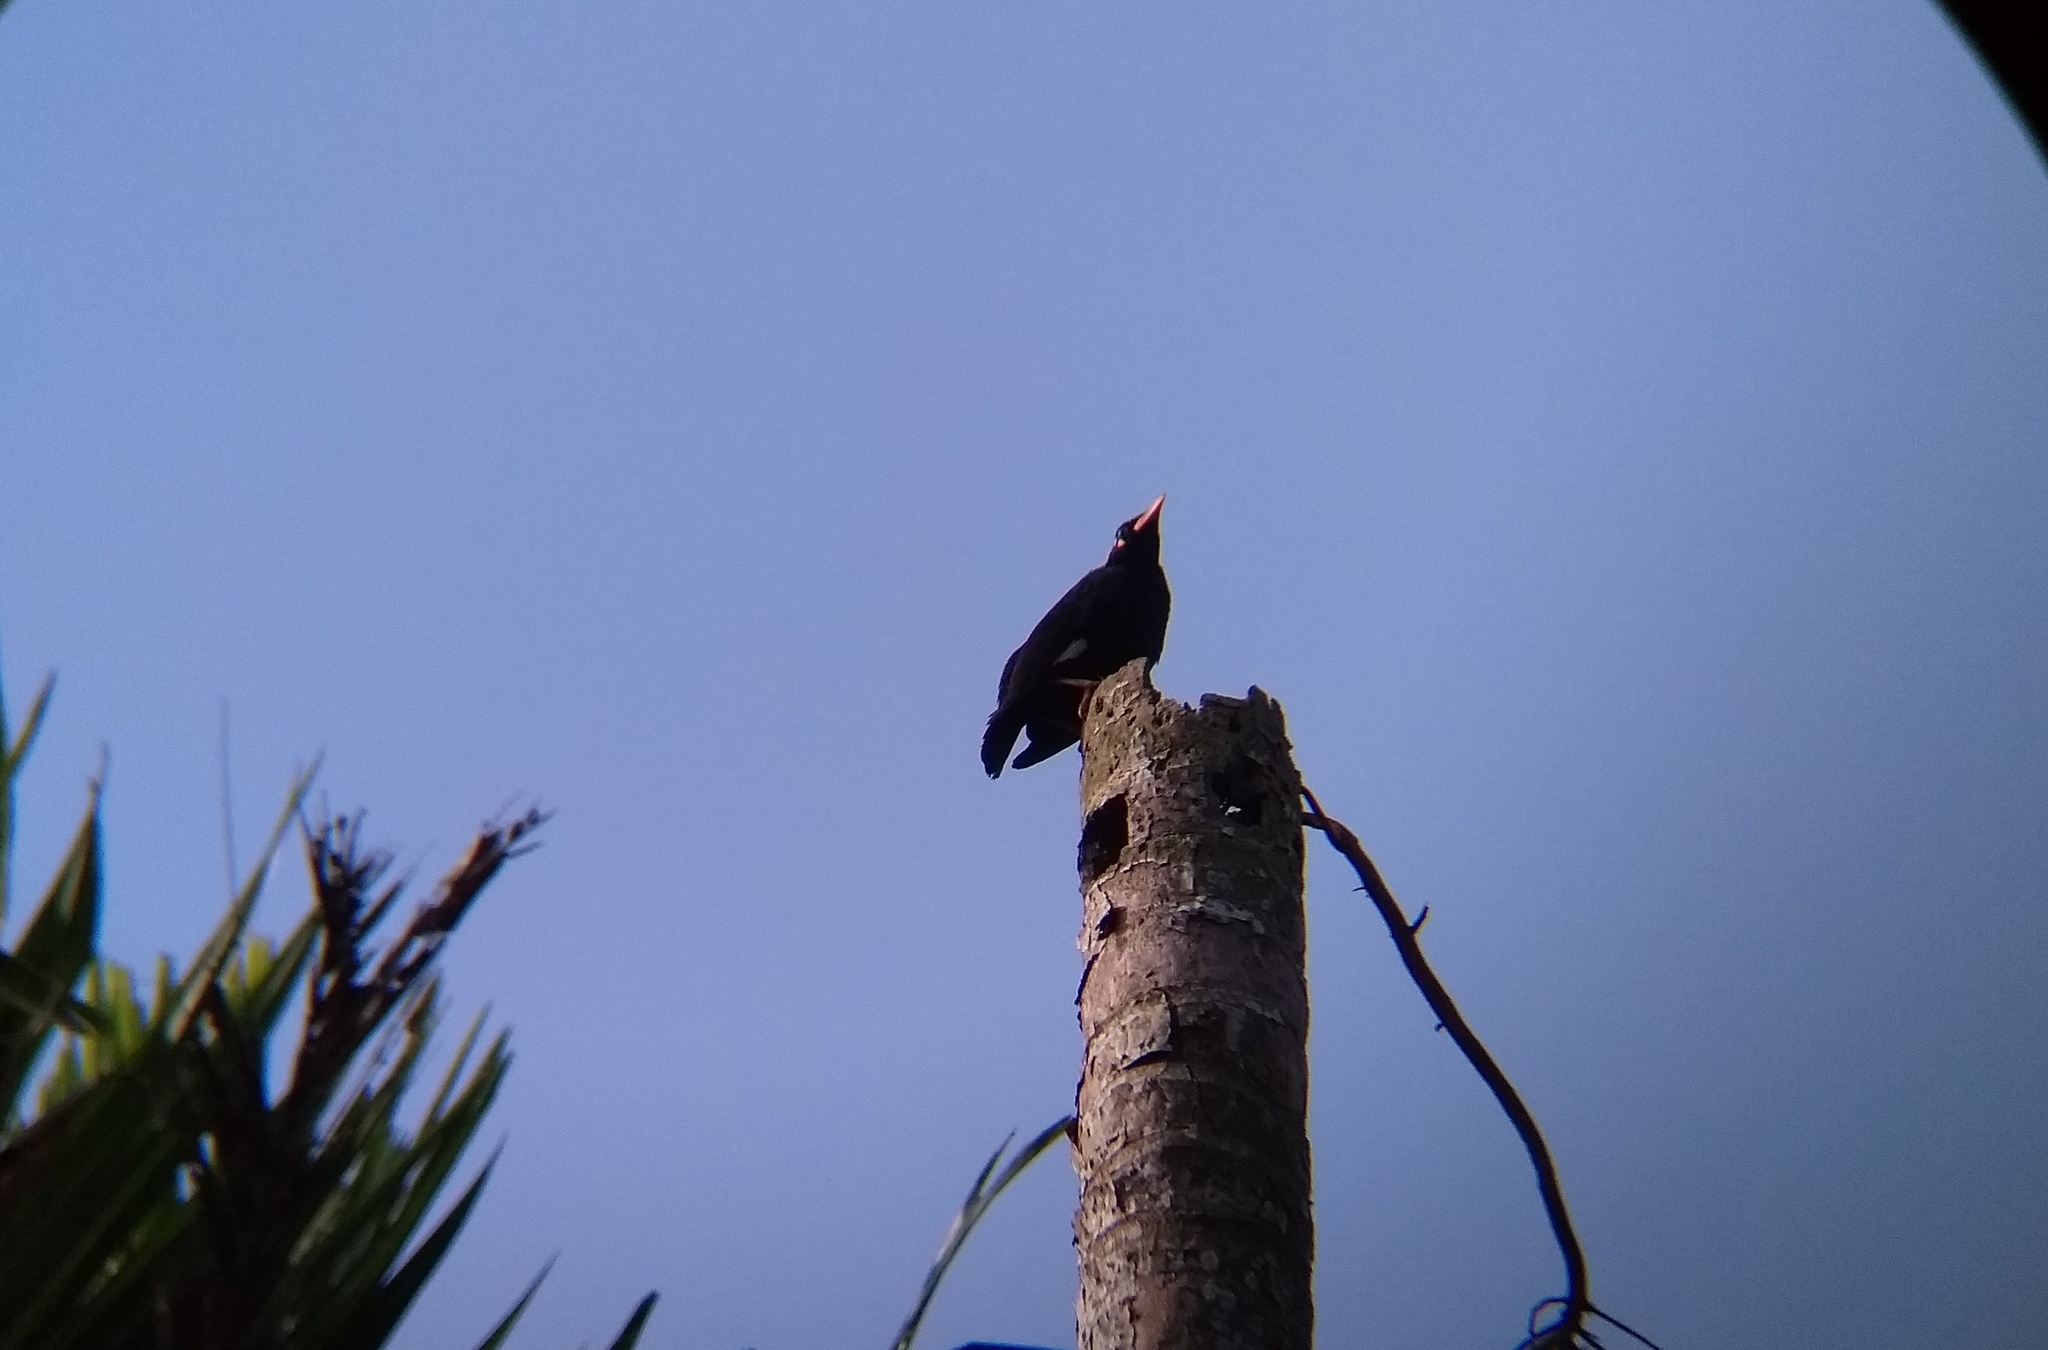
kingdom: Animalia
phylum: Chordata
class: Aves
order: Passeriformes
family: Sturnidae
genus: Gracula
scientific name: Gracula indica
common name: Southern hill myna
